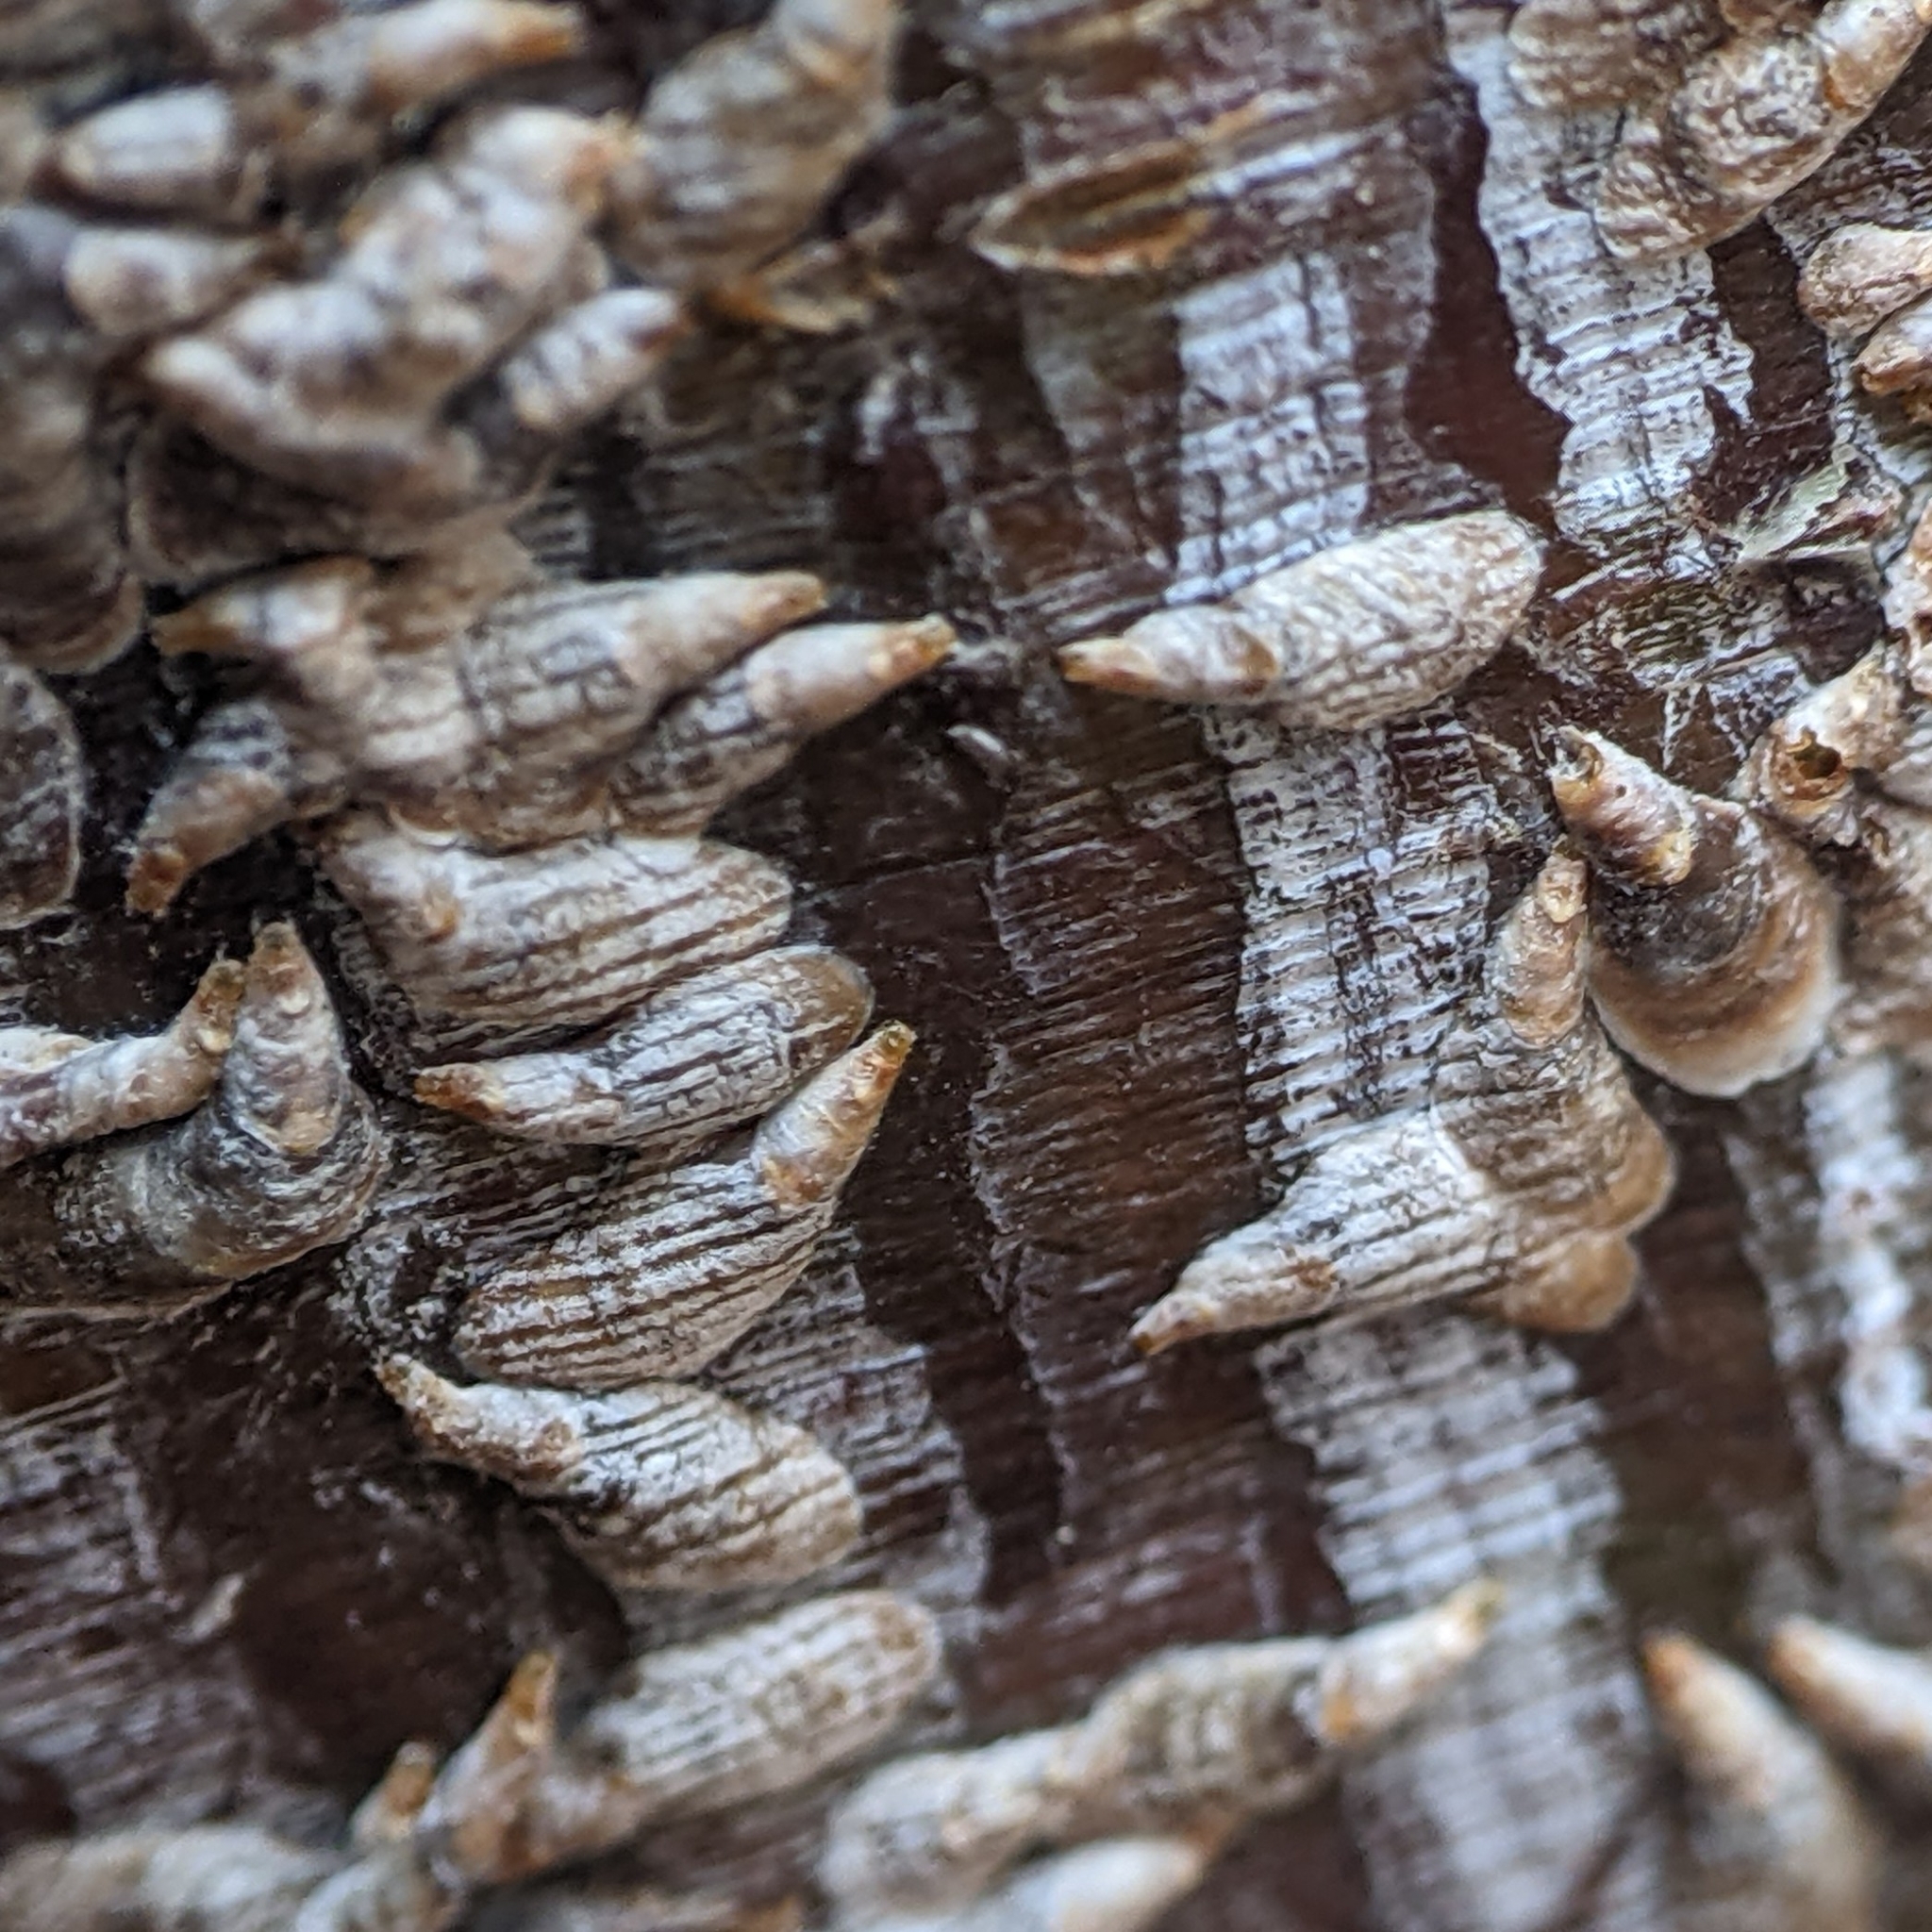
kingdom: Animalia
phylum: Arthropoda
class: Insecta
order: Hemiptera
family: Diaspididae
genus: Lepidosaphes
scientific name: Lepidosaphes ulmi
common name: Oystershell scale
